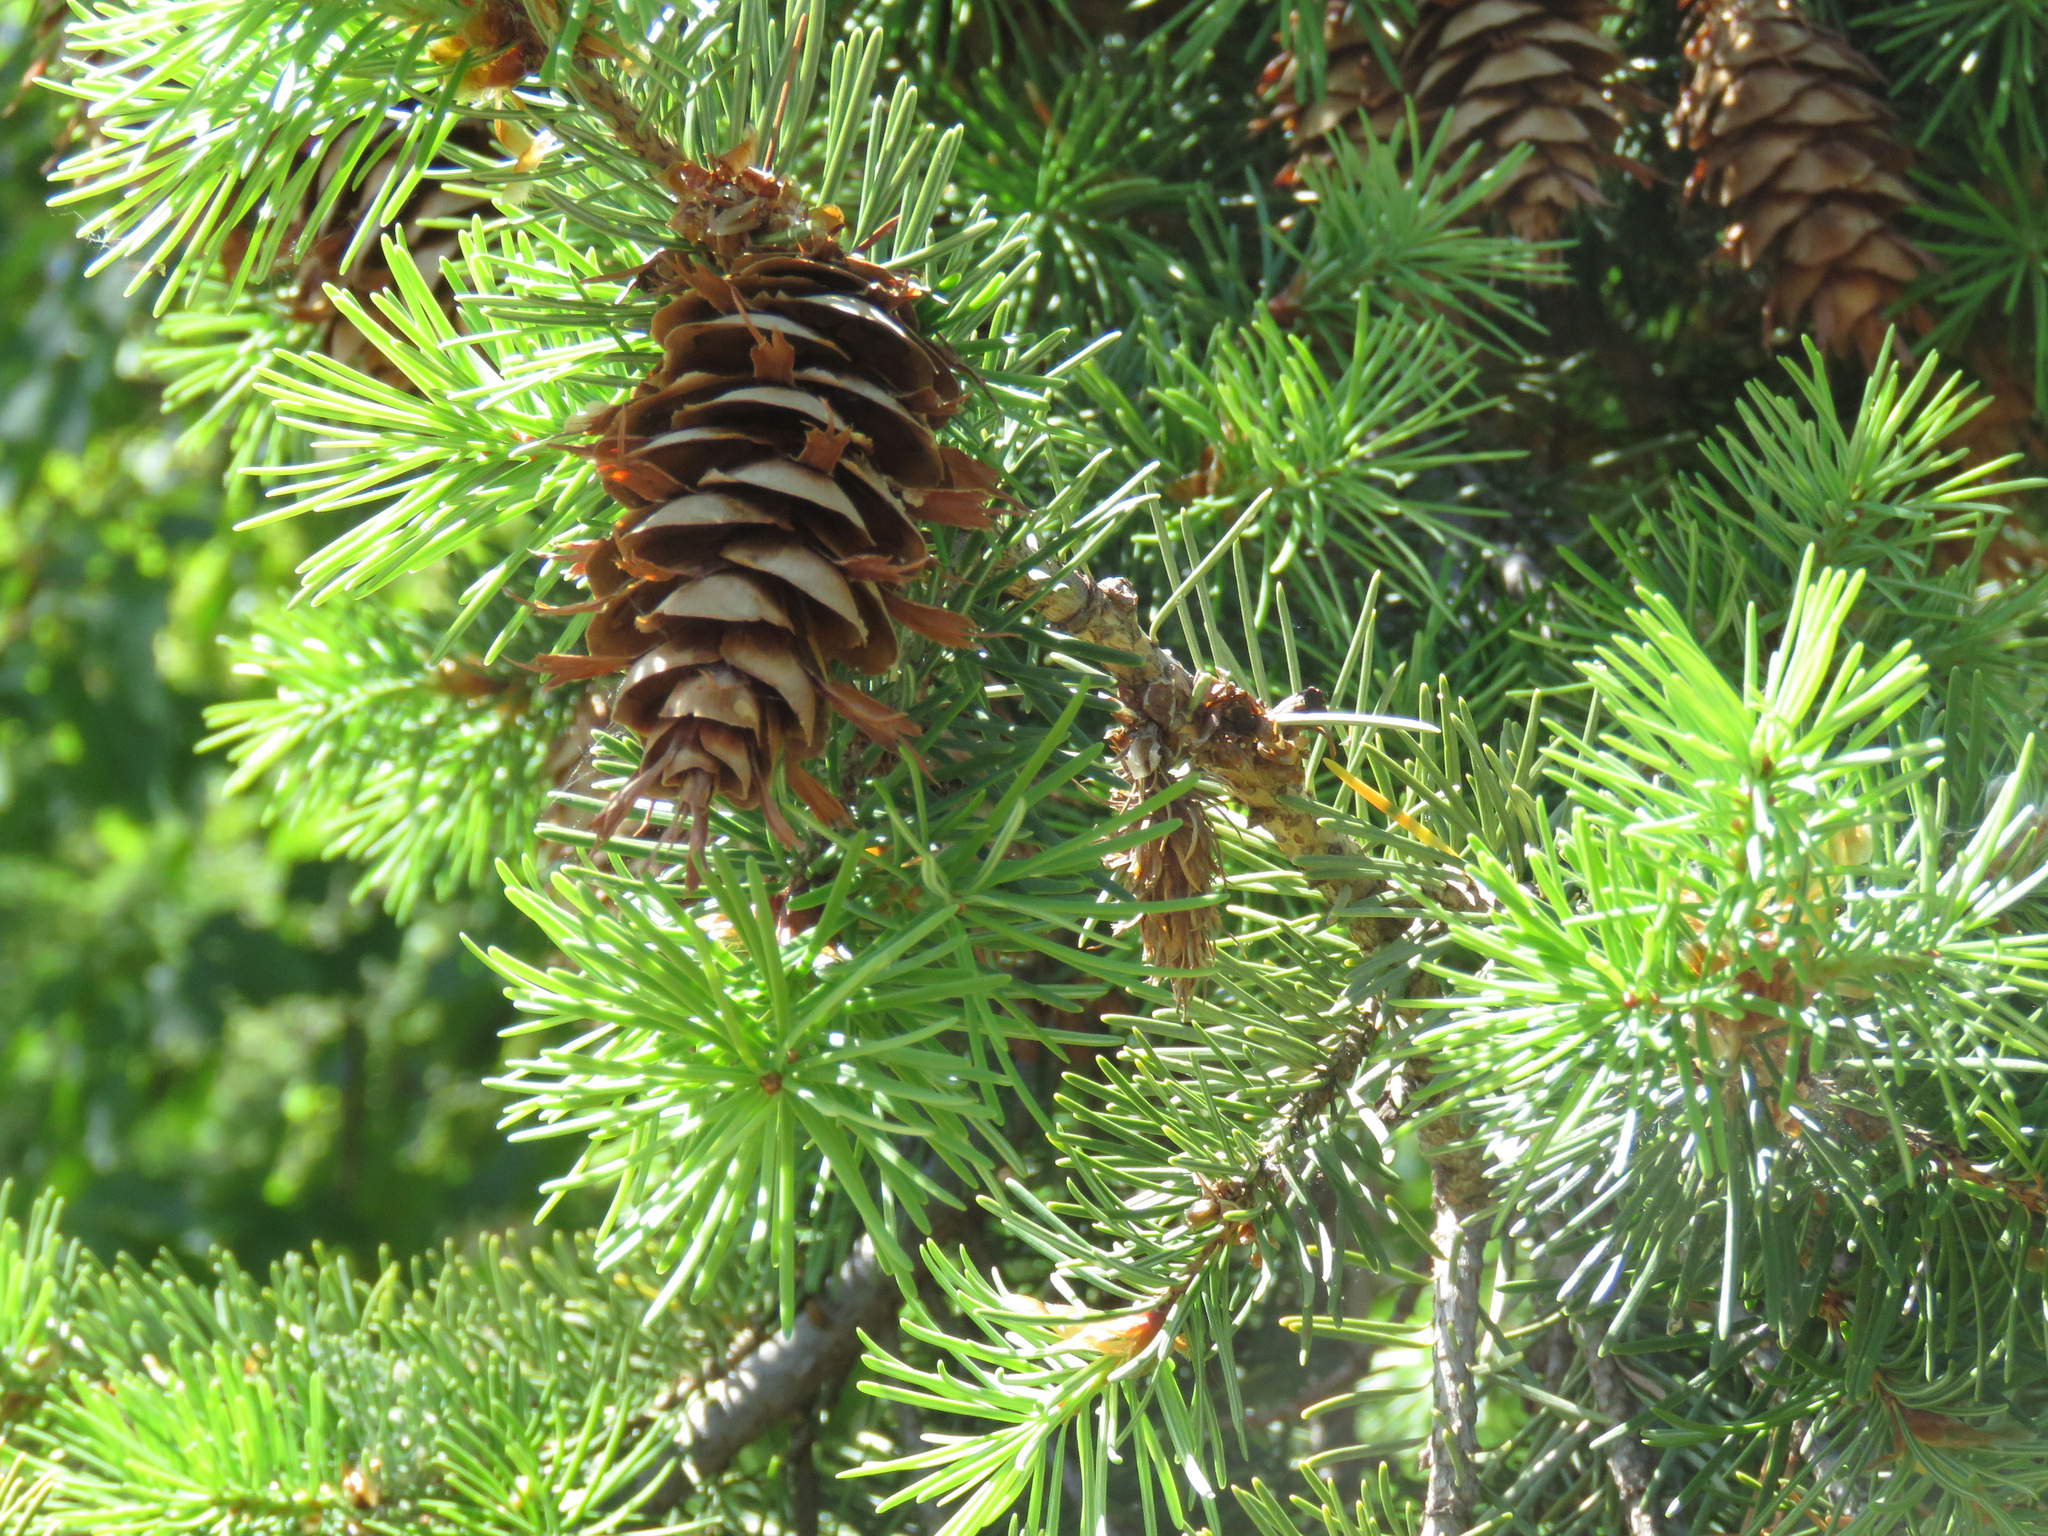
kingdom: Plantae
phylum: Tracheophyta
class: Pinopsida
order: Pinales
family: Pinaceae
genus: Pseudotsuga
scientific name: Pseudotsuga menziesii
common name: Douglas fir
